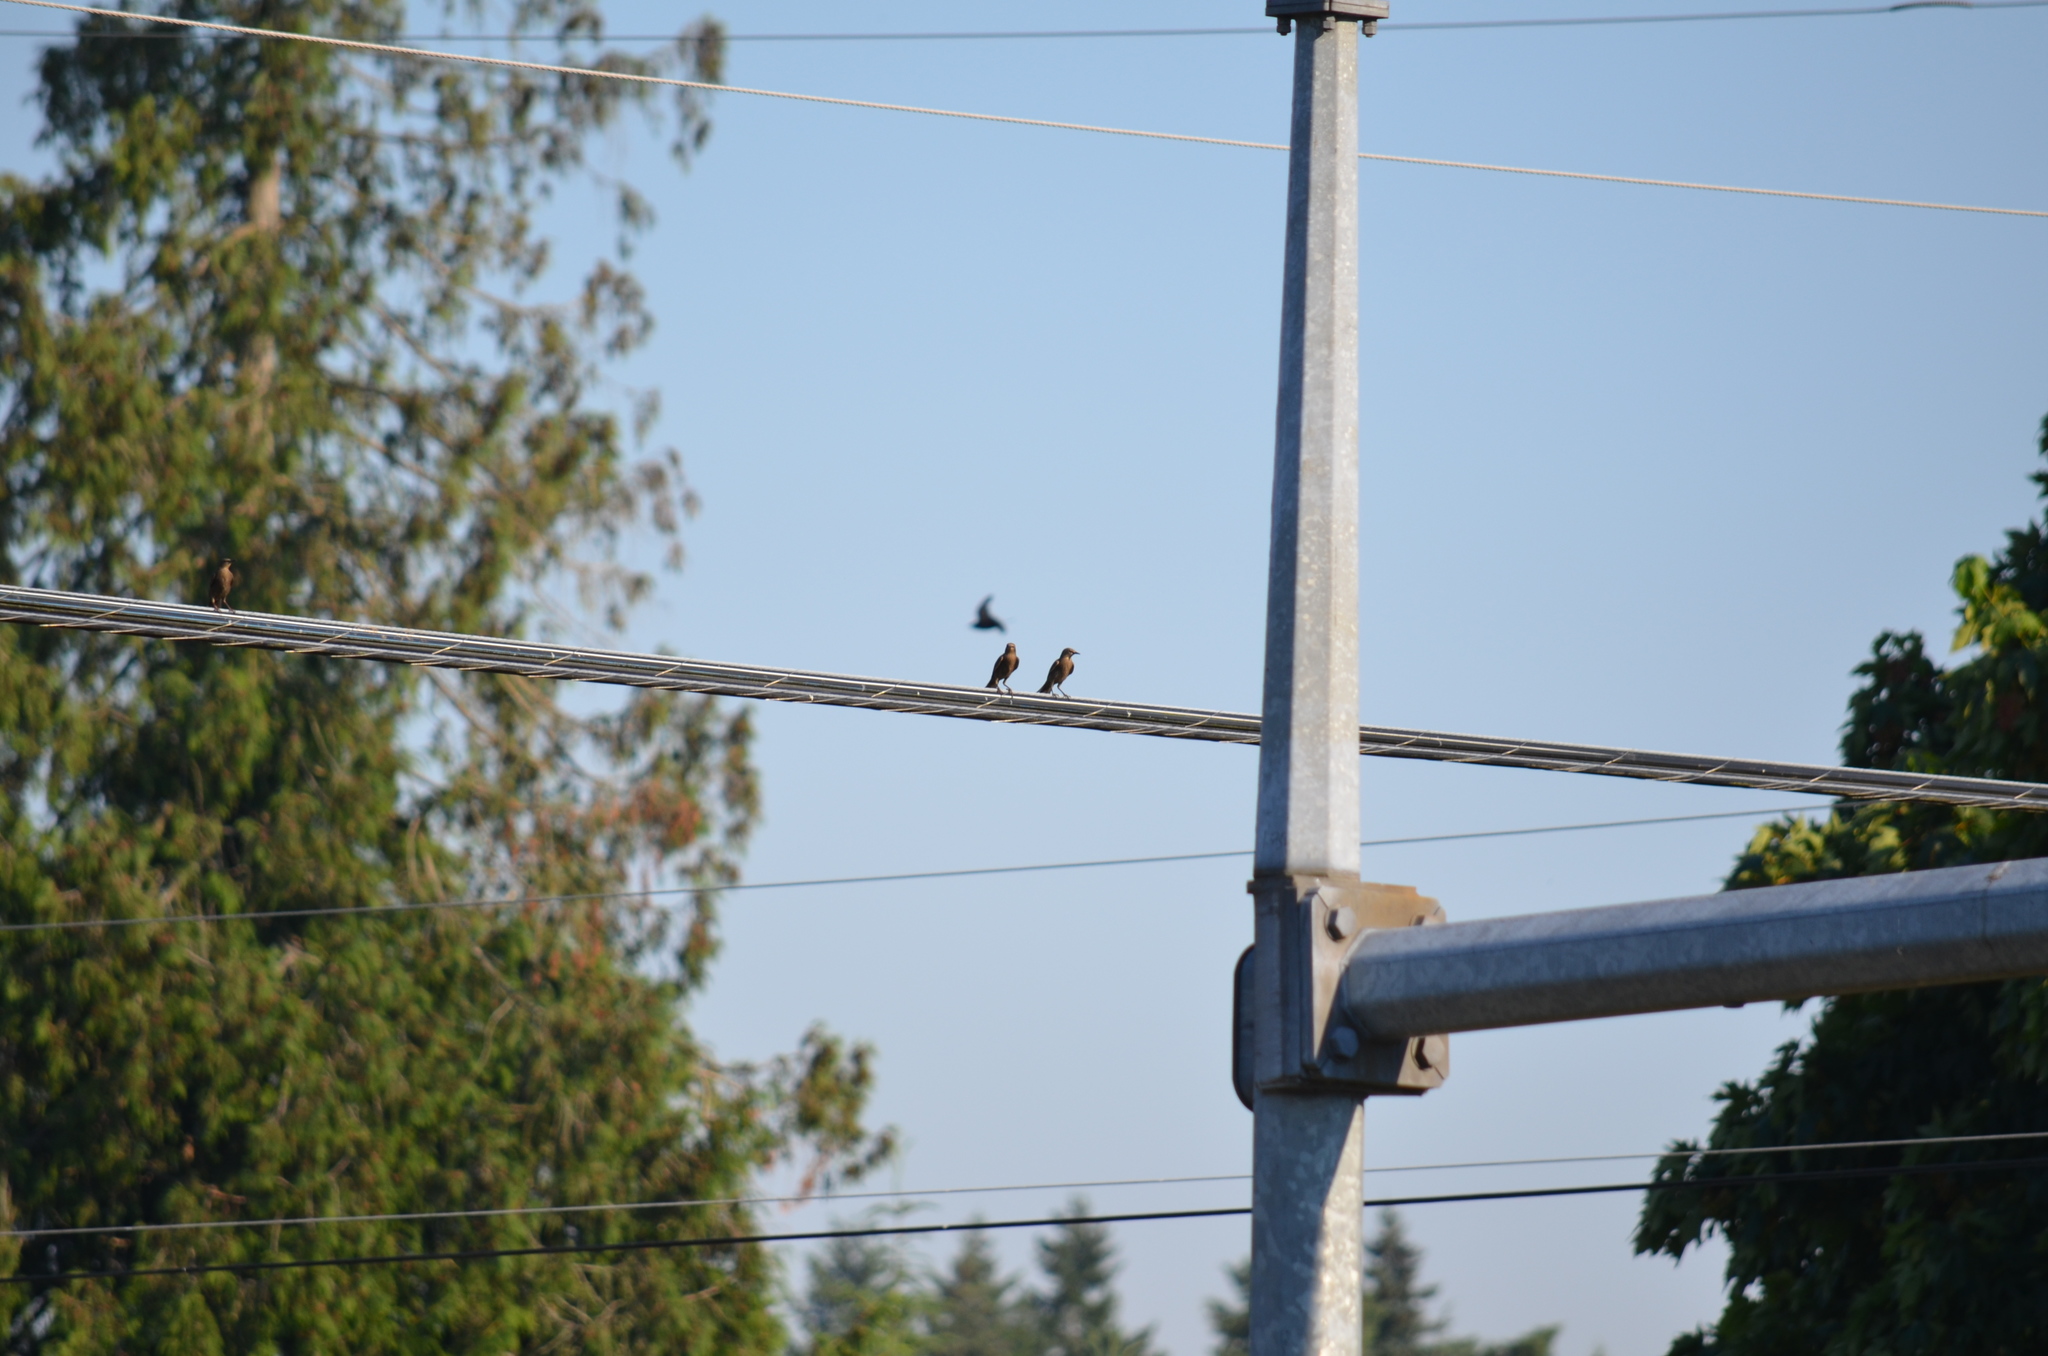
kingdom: Animalia
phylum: Chordata
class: Aves
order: Passeriformes
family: Sturnidae
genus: Sturnus
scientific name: Sturnus vulgaris
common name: Common starling
